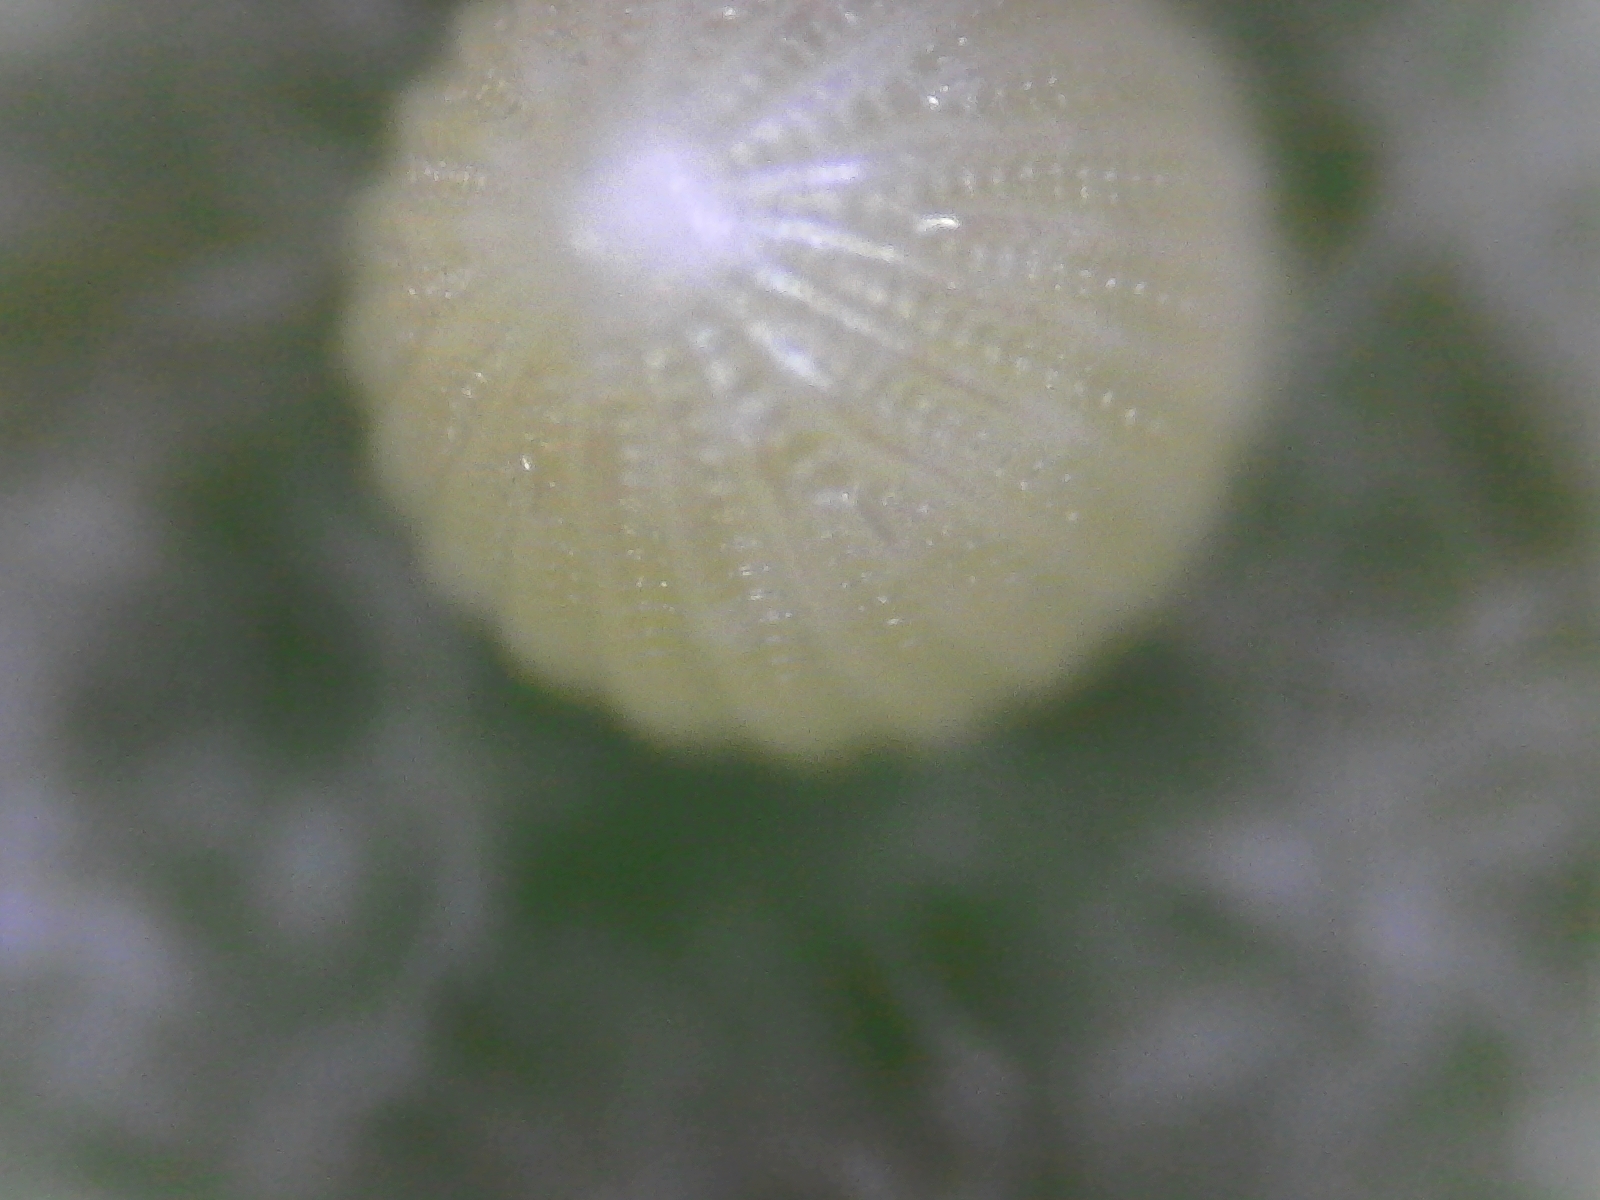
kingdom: Animalia
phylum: Arthropoda
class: Insecta
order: Lepidoptera
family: Nymphalidae
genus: Danaus
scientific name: Danaus plexippus
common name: Monarch
